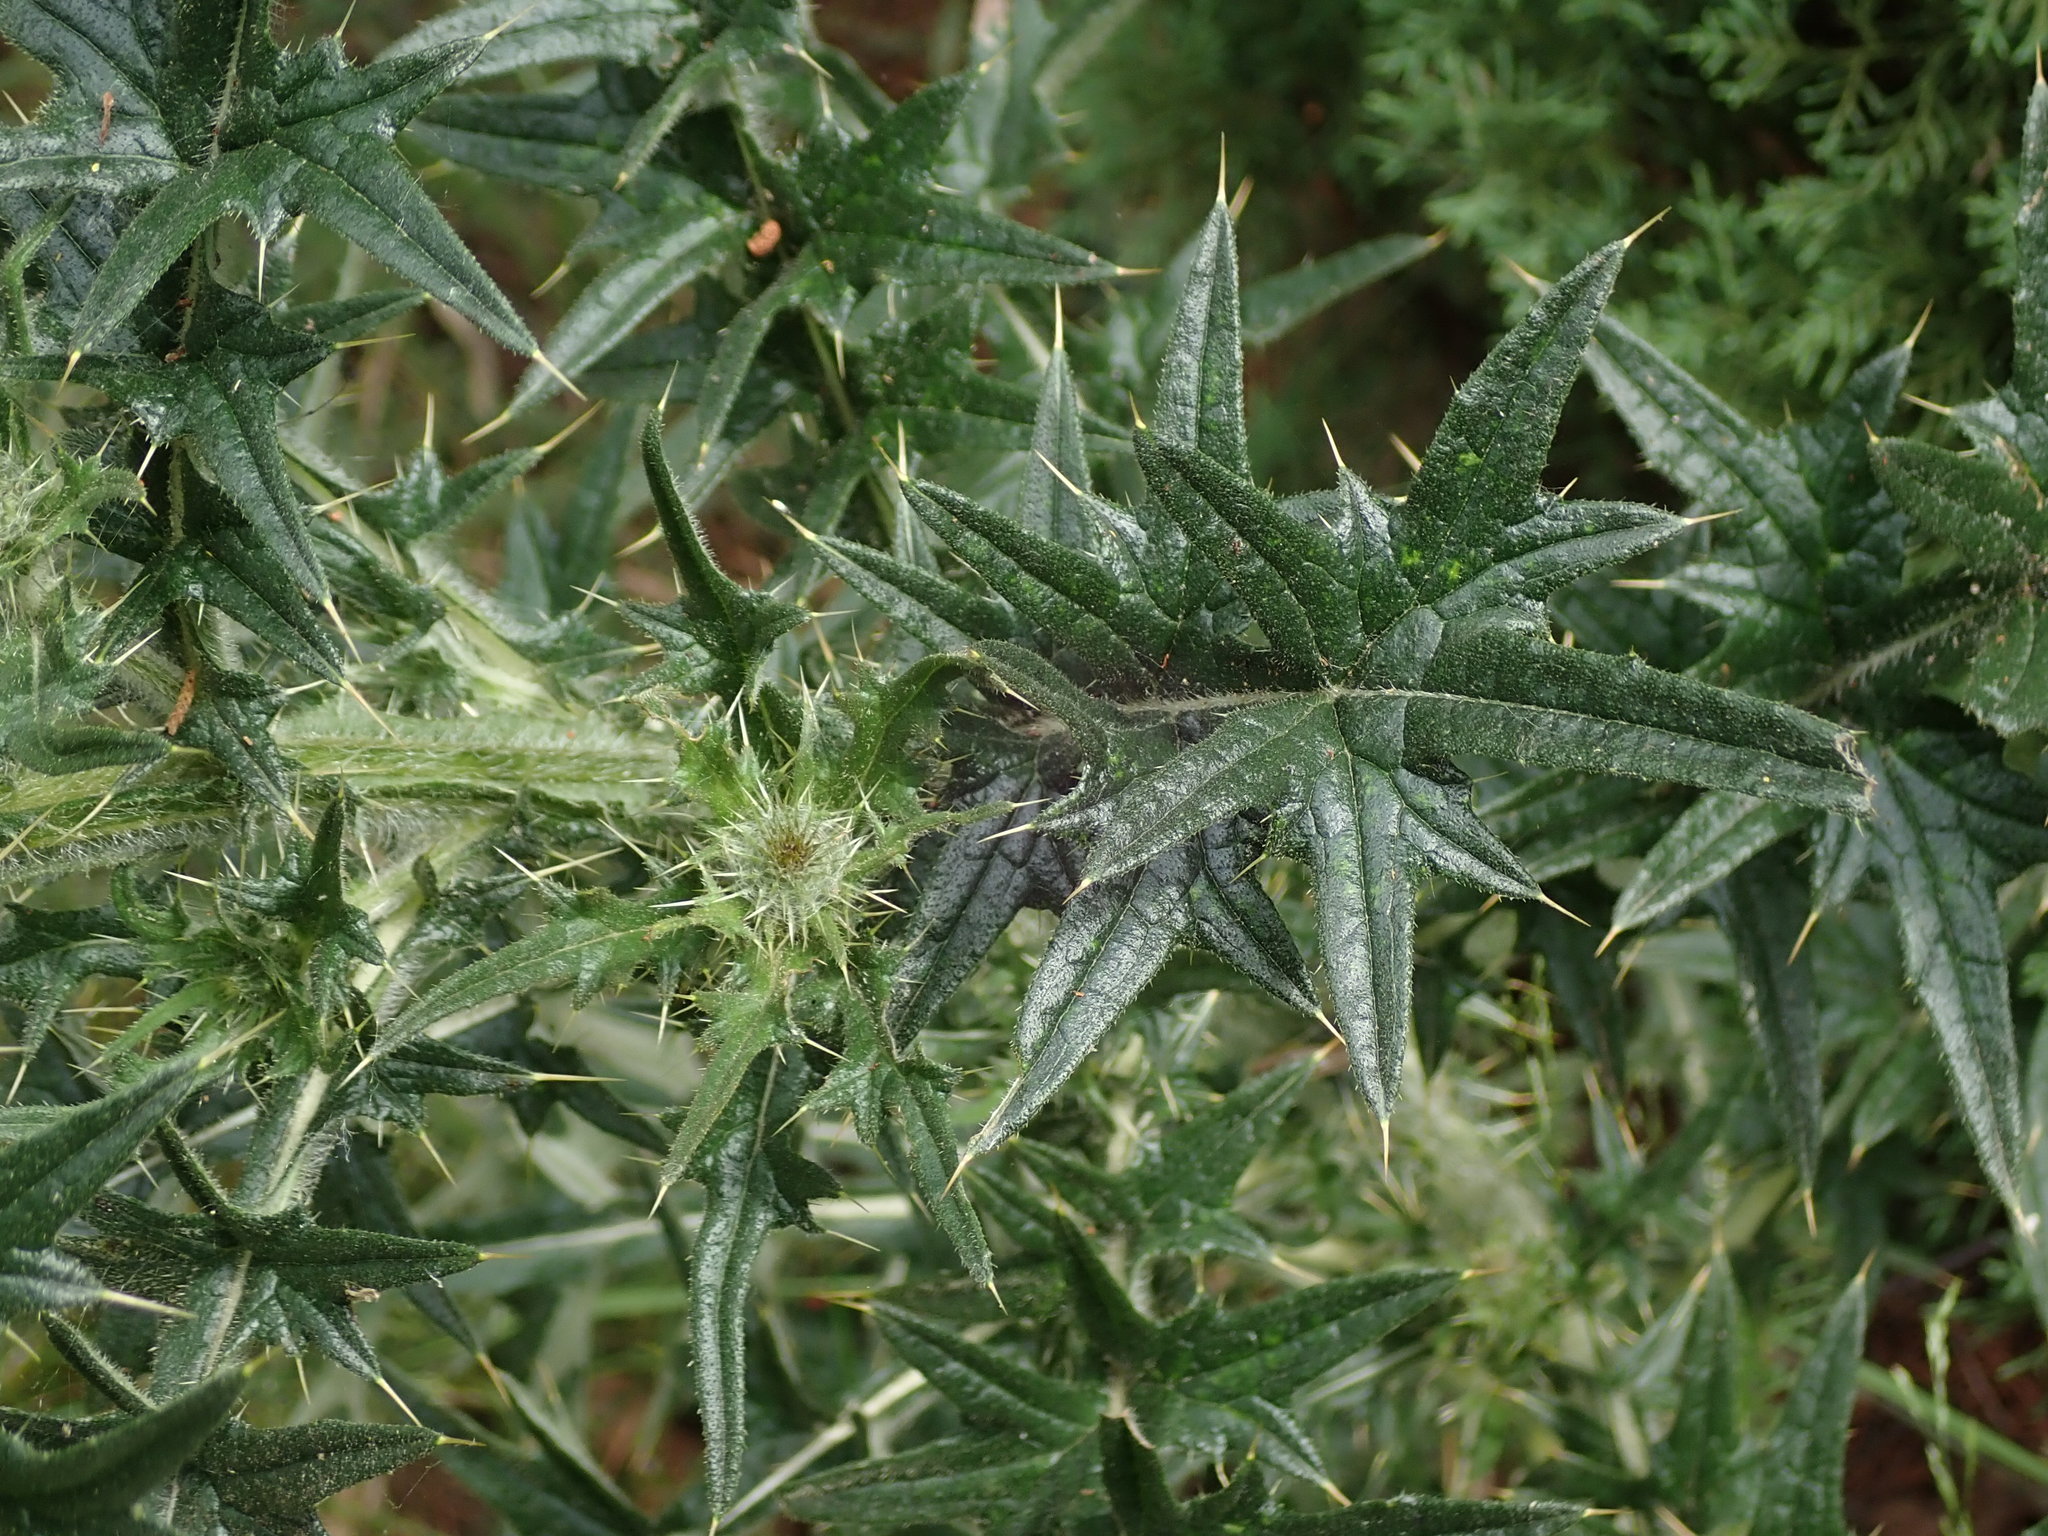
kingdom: Plantae
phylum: Tracheophyta
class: Magnoliopsida
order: Asterales
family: Asteraceae
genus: Cirsium
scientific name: Cirsium vulgare
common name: Bull thistle
